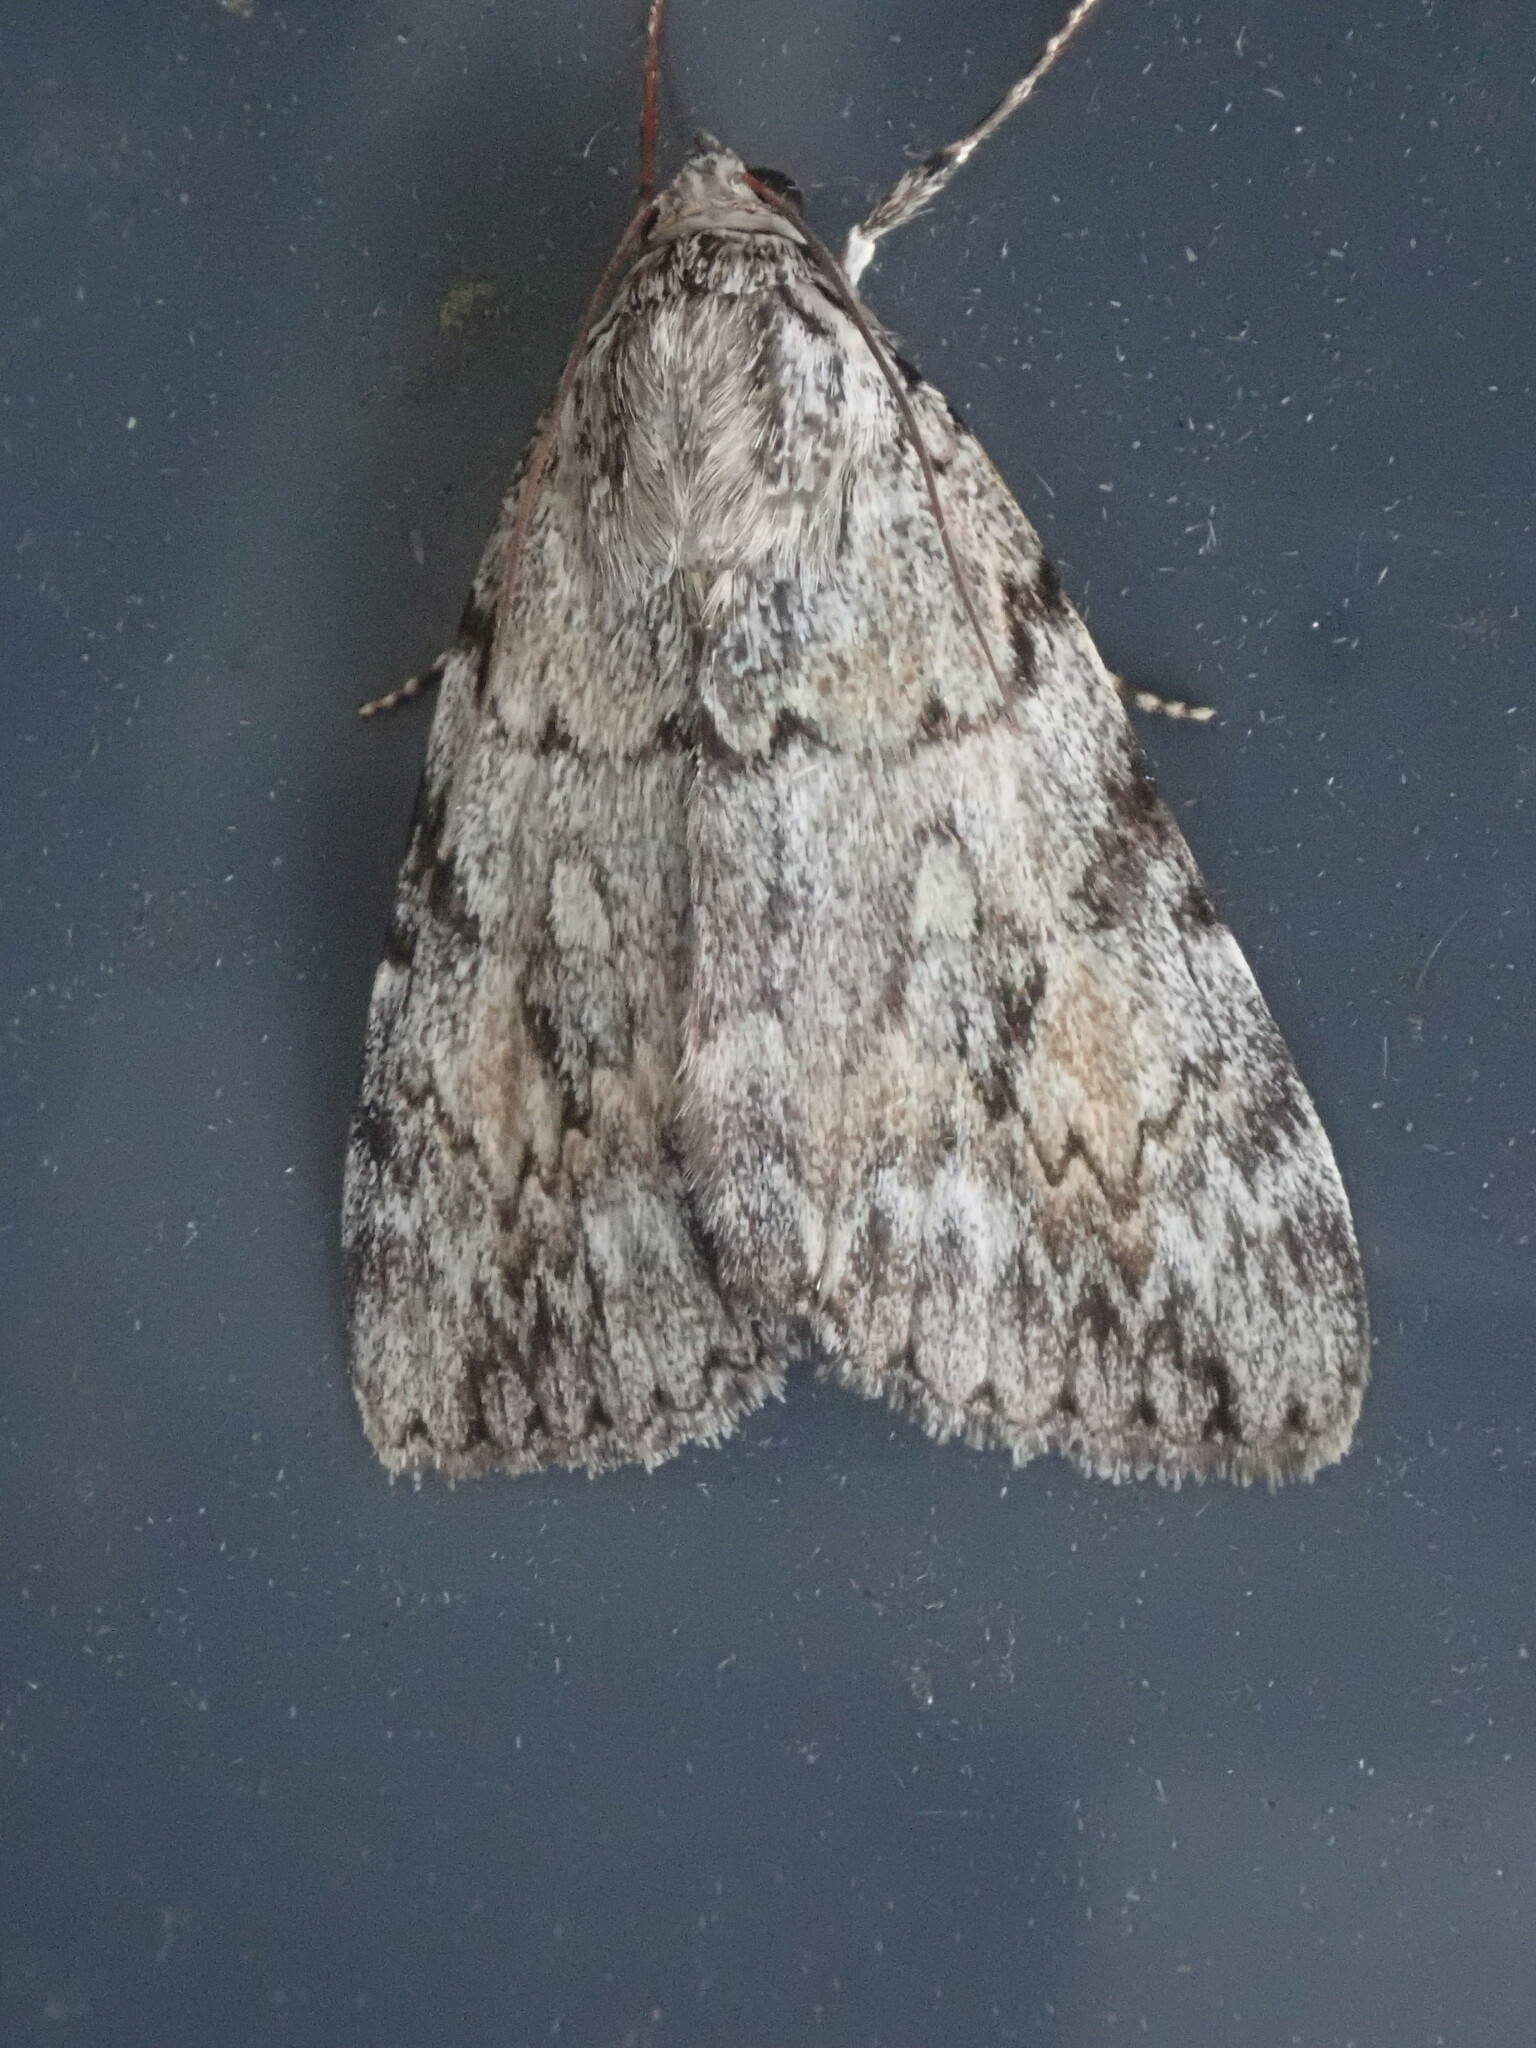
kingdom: Animalia
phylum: Arthropoda
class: Insecta
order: Lepidoptera
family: Erebidae
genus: Catocala
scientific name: Catocala amica
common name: Girlfriend underwing
